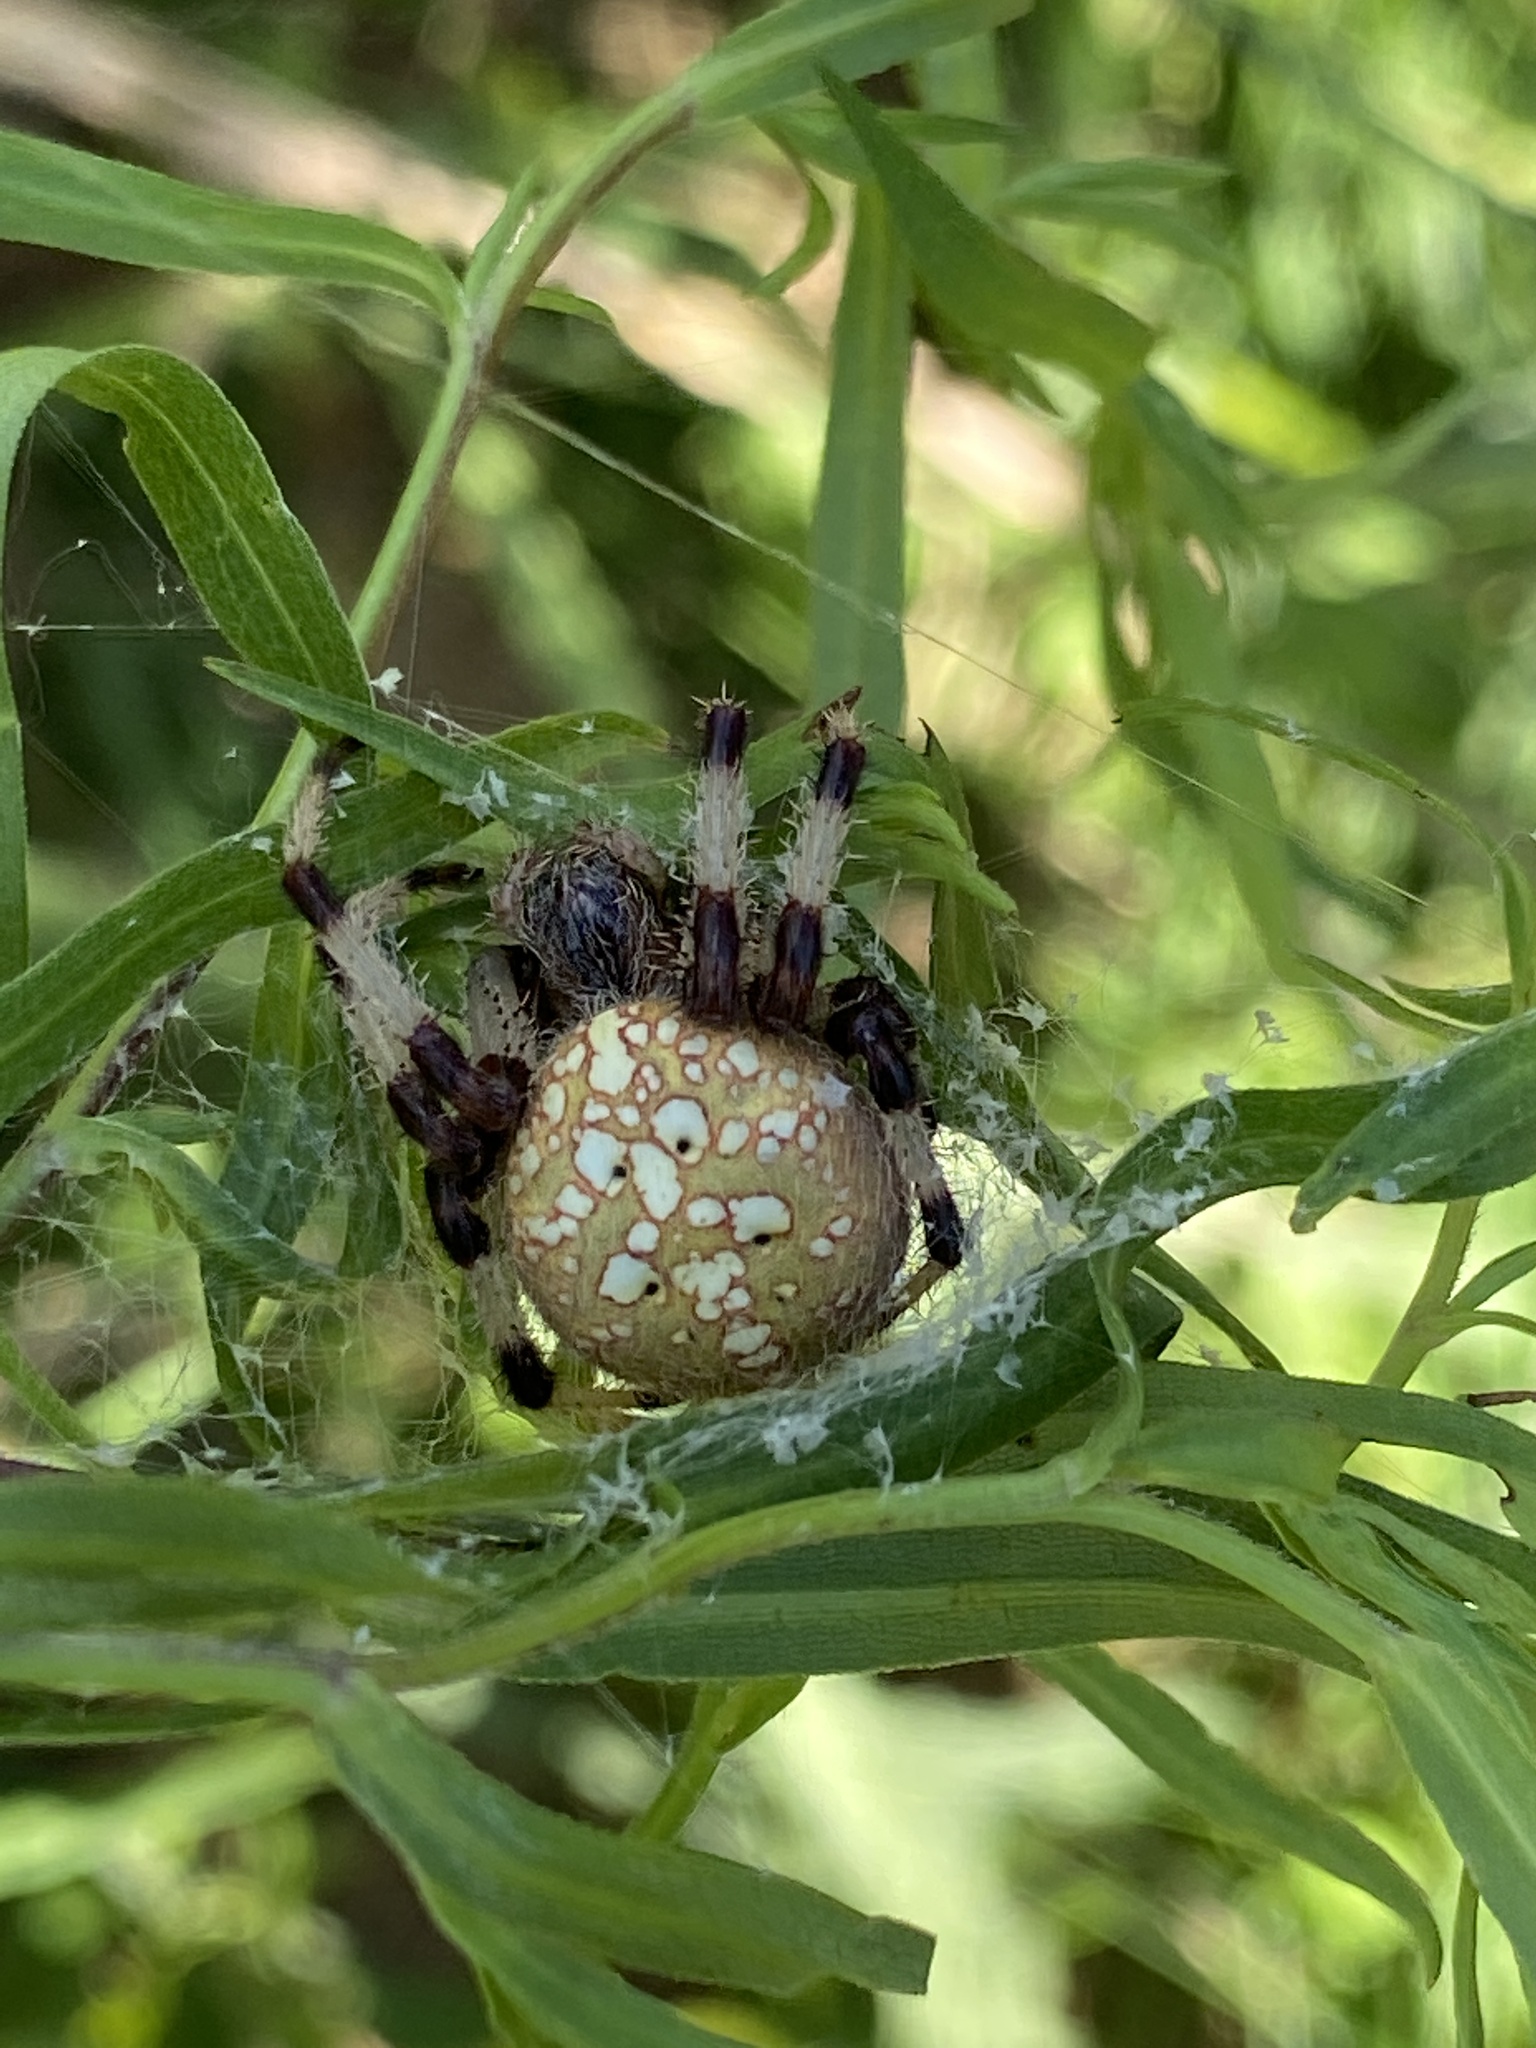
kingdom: Animalia
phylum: Arthropoda
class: Arachnida
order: Araneae
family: Araneidae
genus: Araneus
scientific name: Araneus trifolium
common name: Shamrock orbweaver
